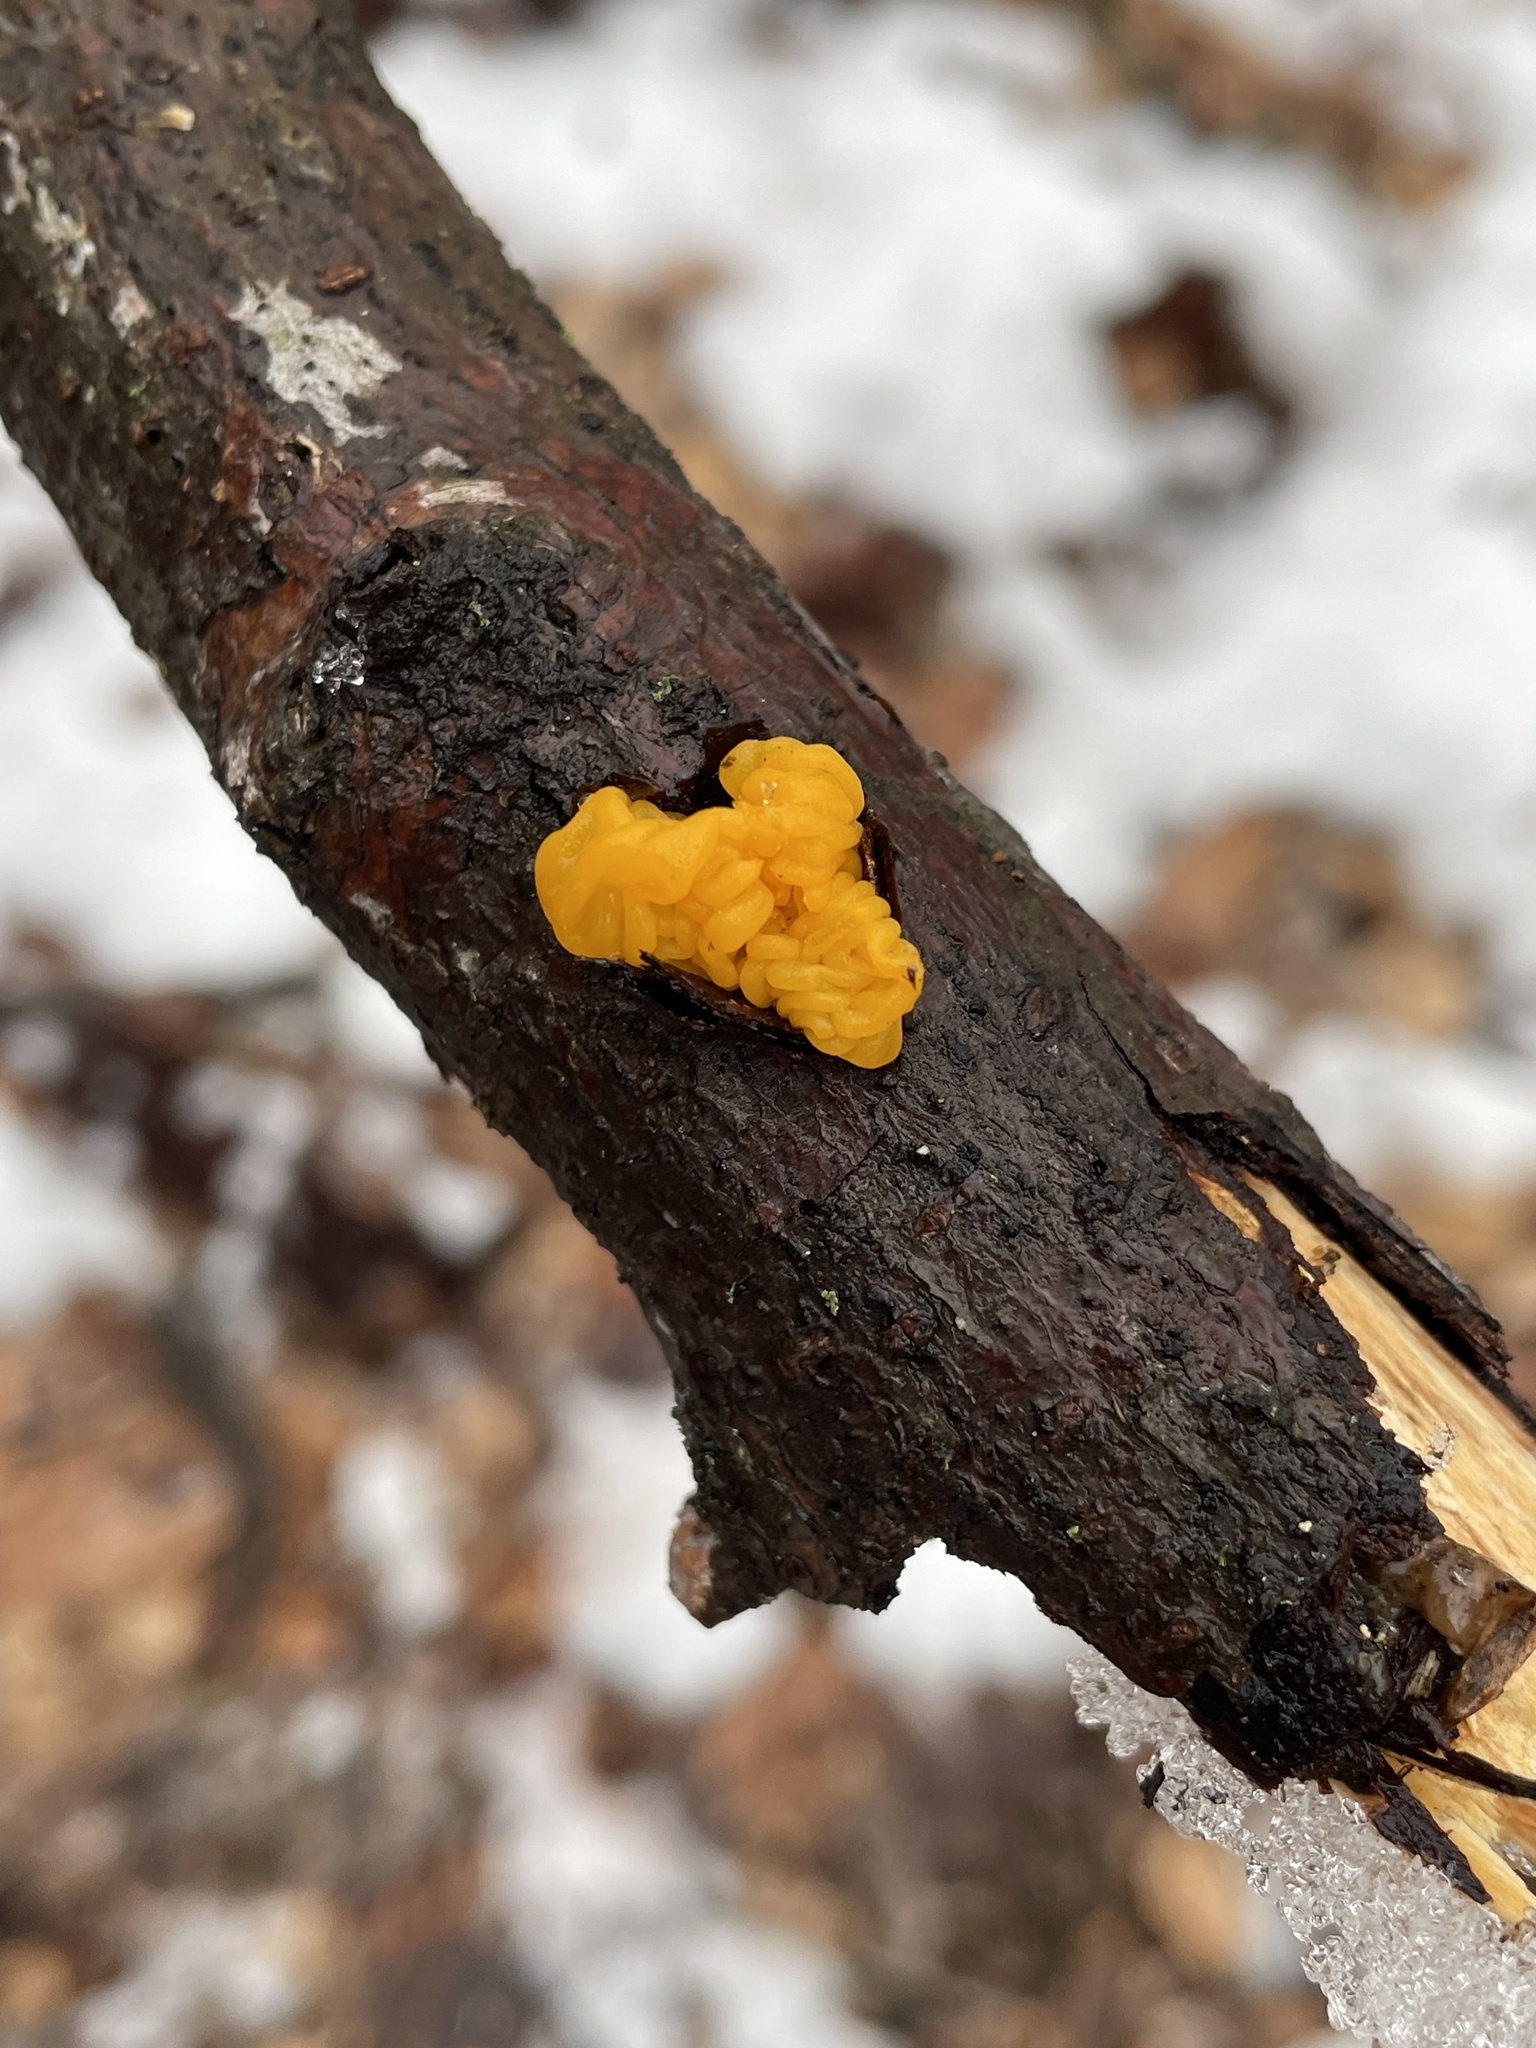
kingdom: Fungi
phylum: Basidiomycota
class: Tremellomycetes
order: Tremellales
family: Naemateliaceae
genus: Naematelia
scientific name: Naematelia aurantia
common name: Golden ear
